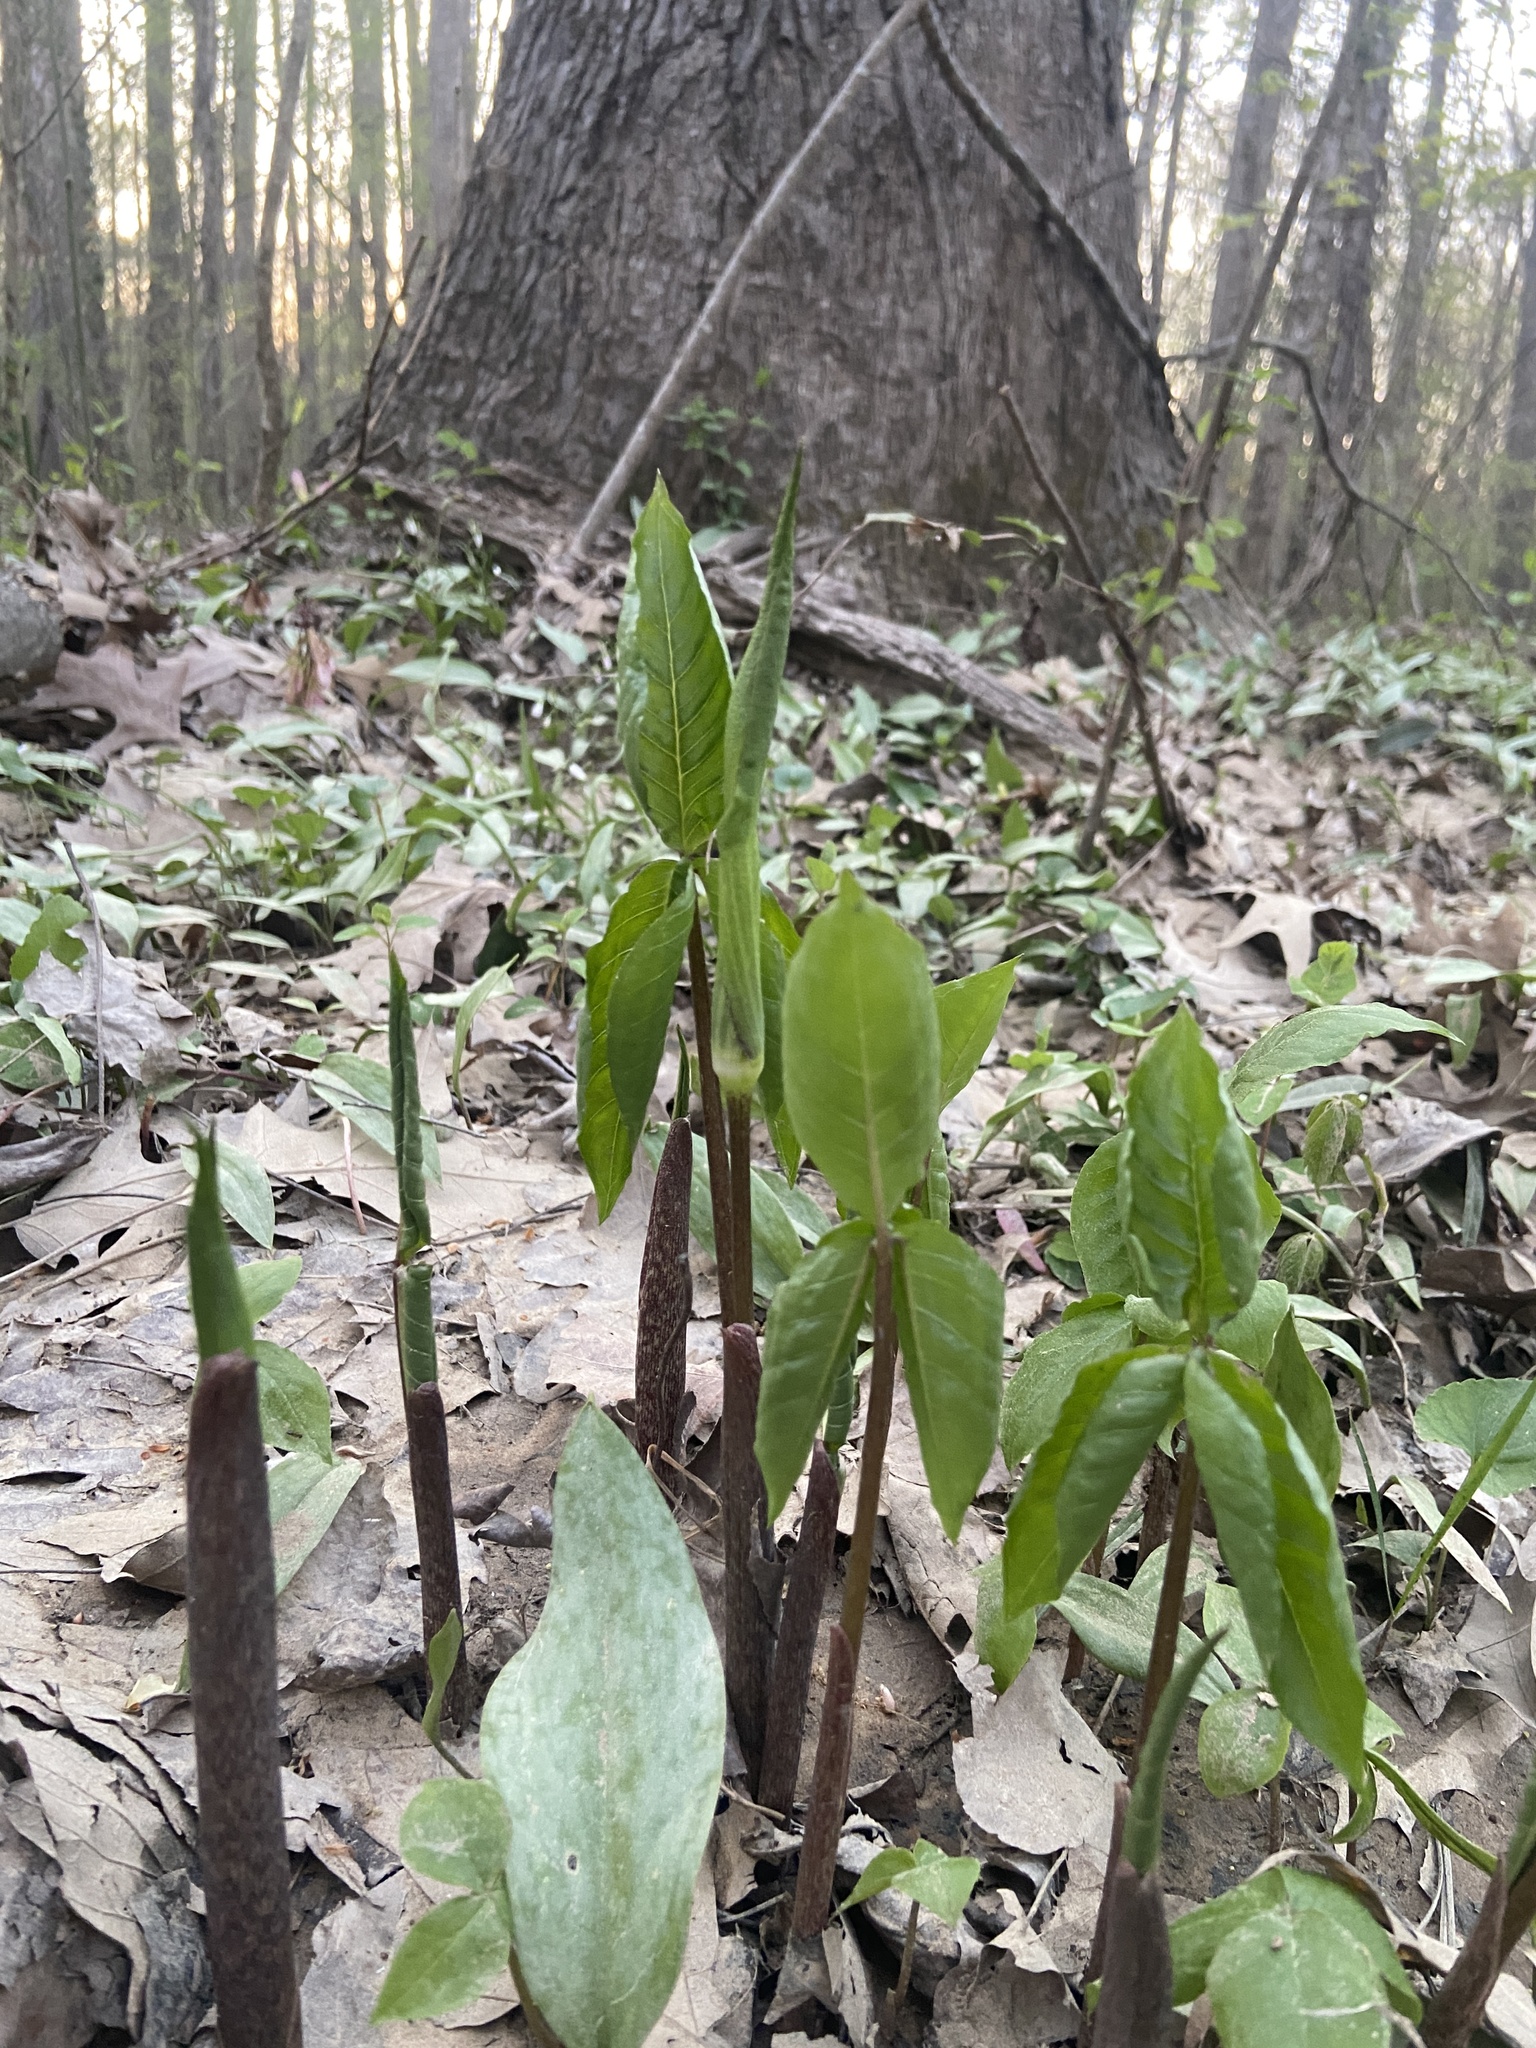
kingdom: Plantae
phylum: Tracheophyta
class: Liliopsida
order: Alismatales
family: Araceae
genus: Arisaema
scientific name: Arisaema triphyllum
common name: Jack-in-the-pulpit
